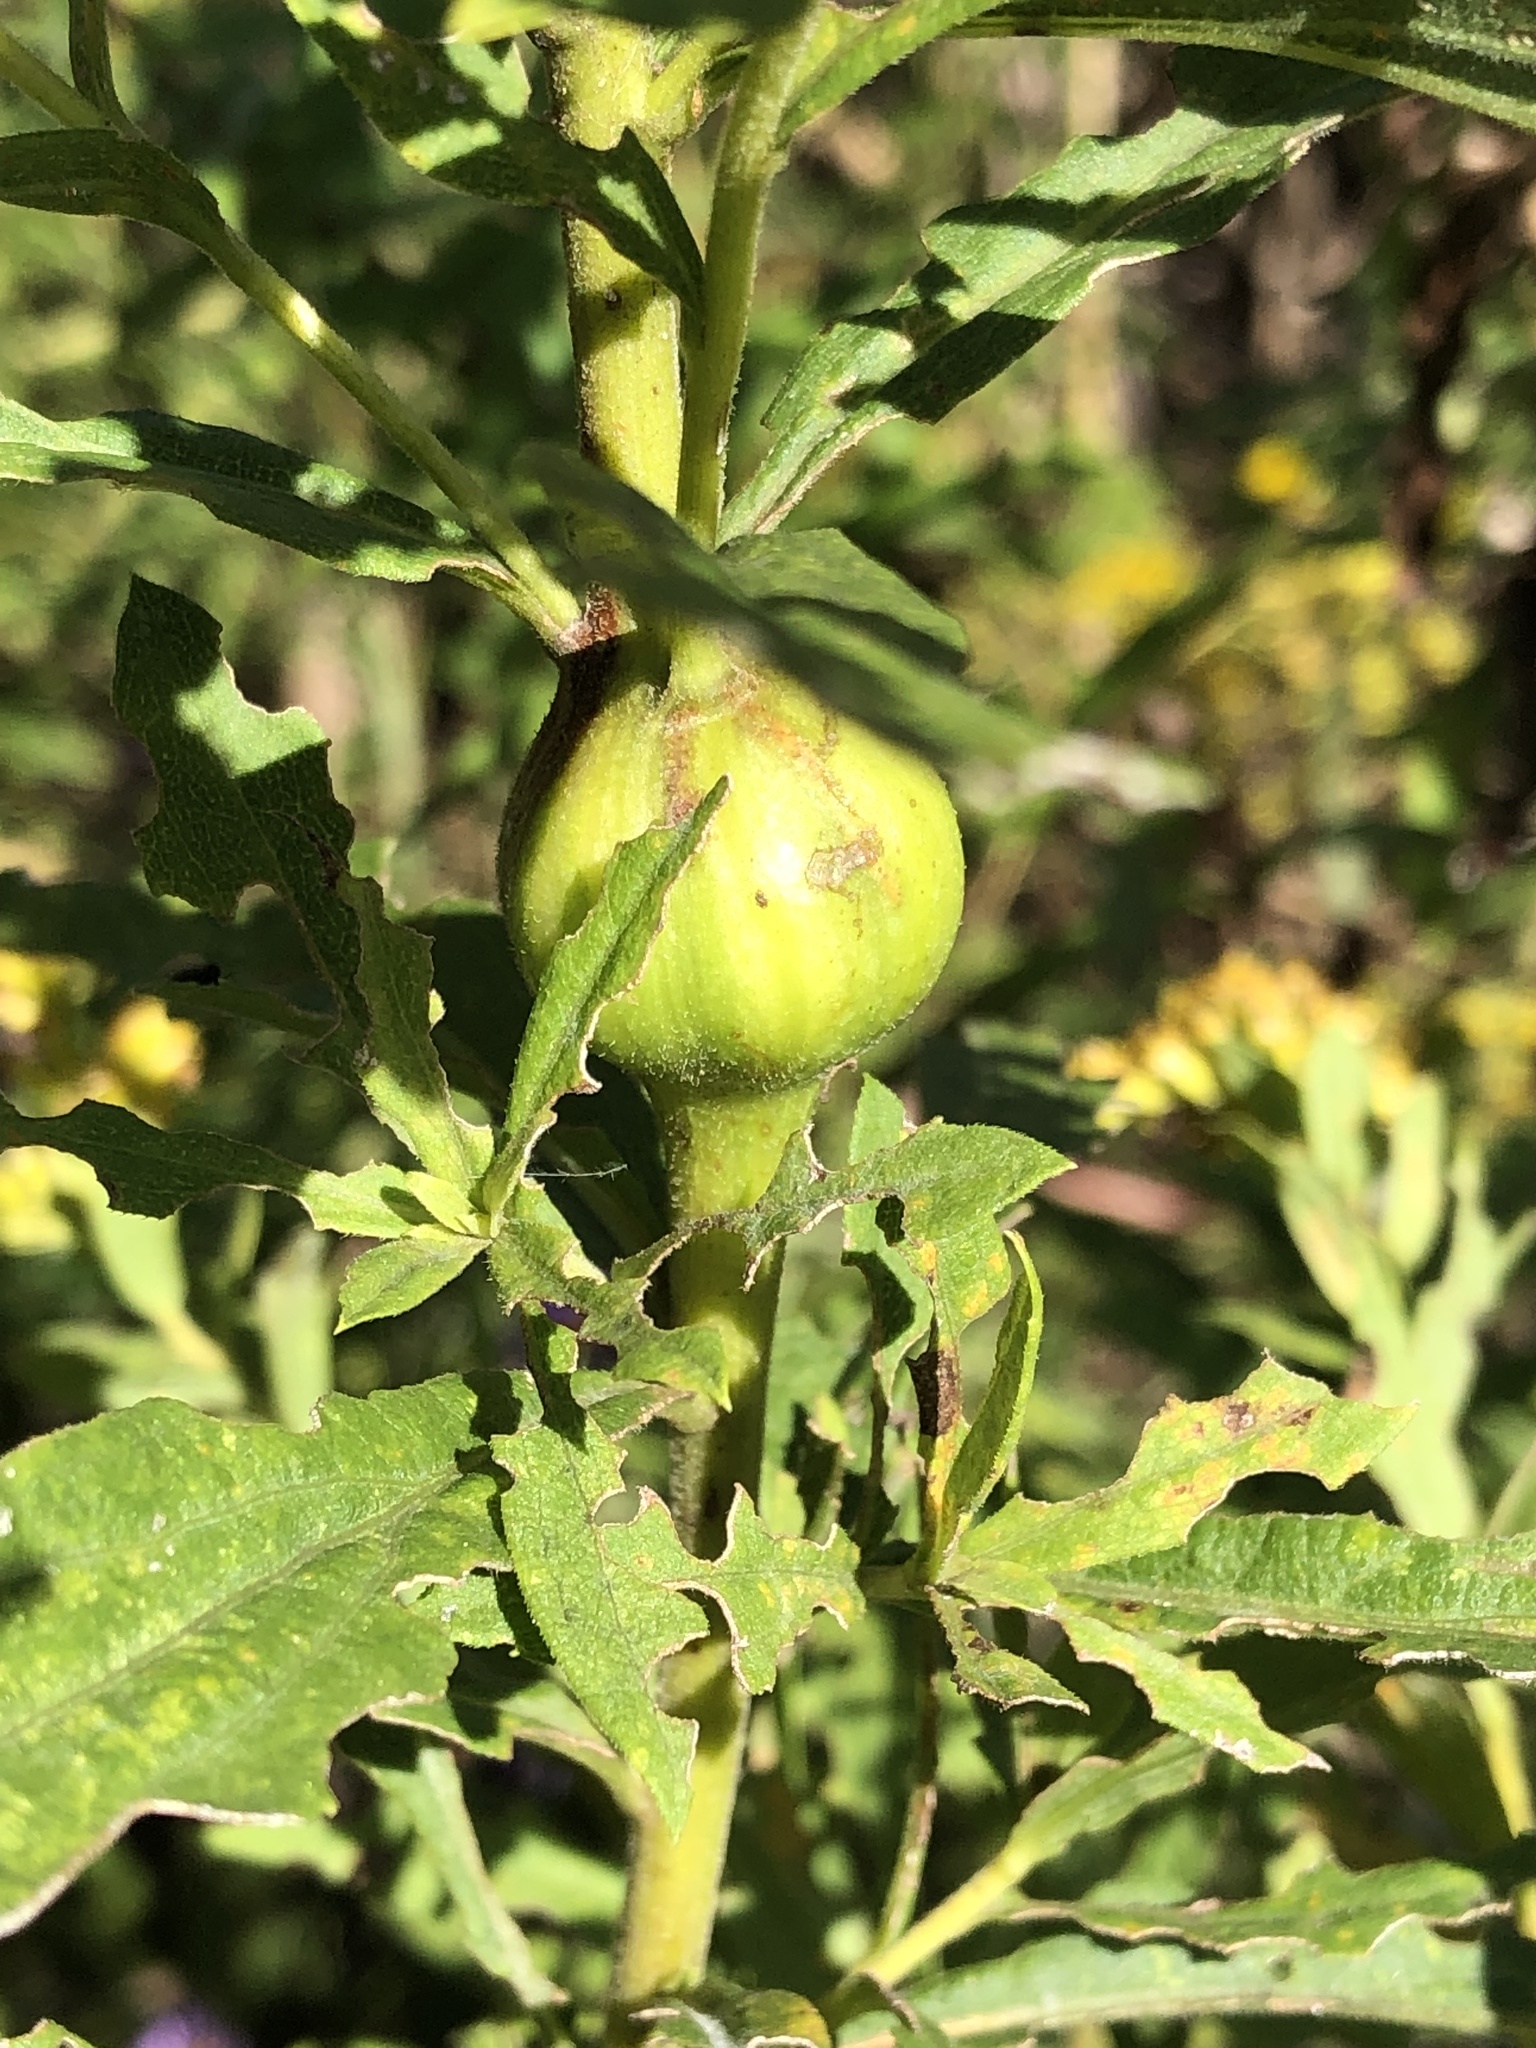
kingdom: Animalia
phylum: Arthropoda
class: Insecta
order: Diptera
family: Tephritidae
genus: Eurosta
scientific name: Eurosta solidaginis
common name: Goldenrod gall fly
